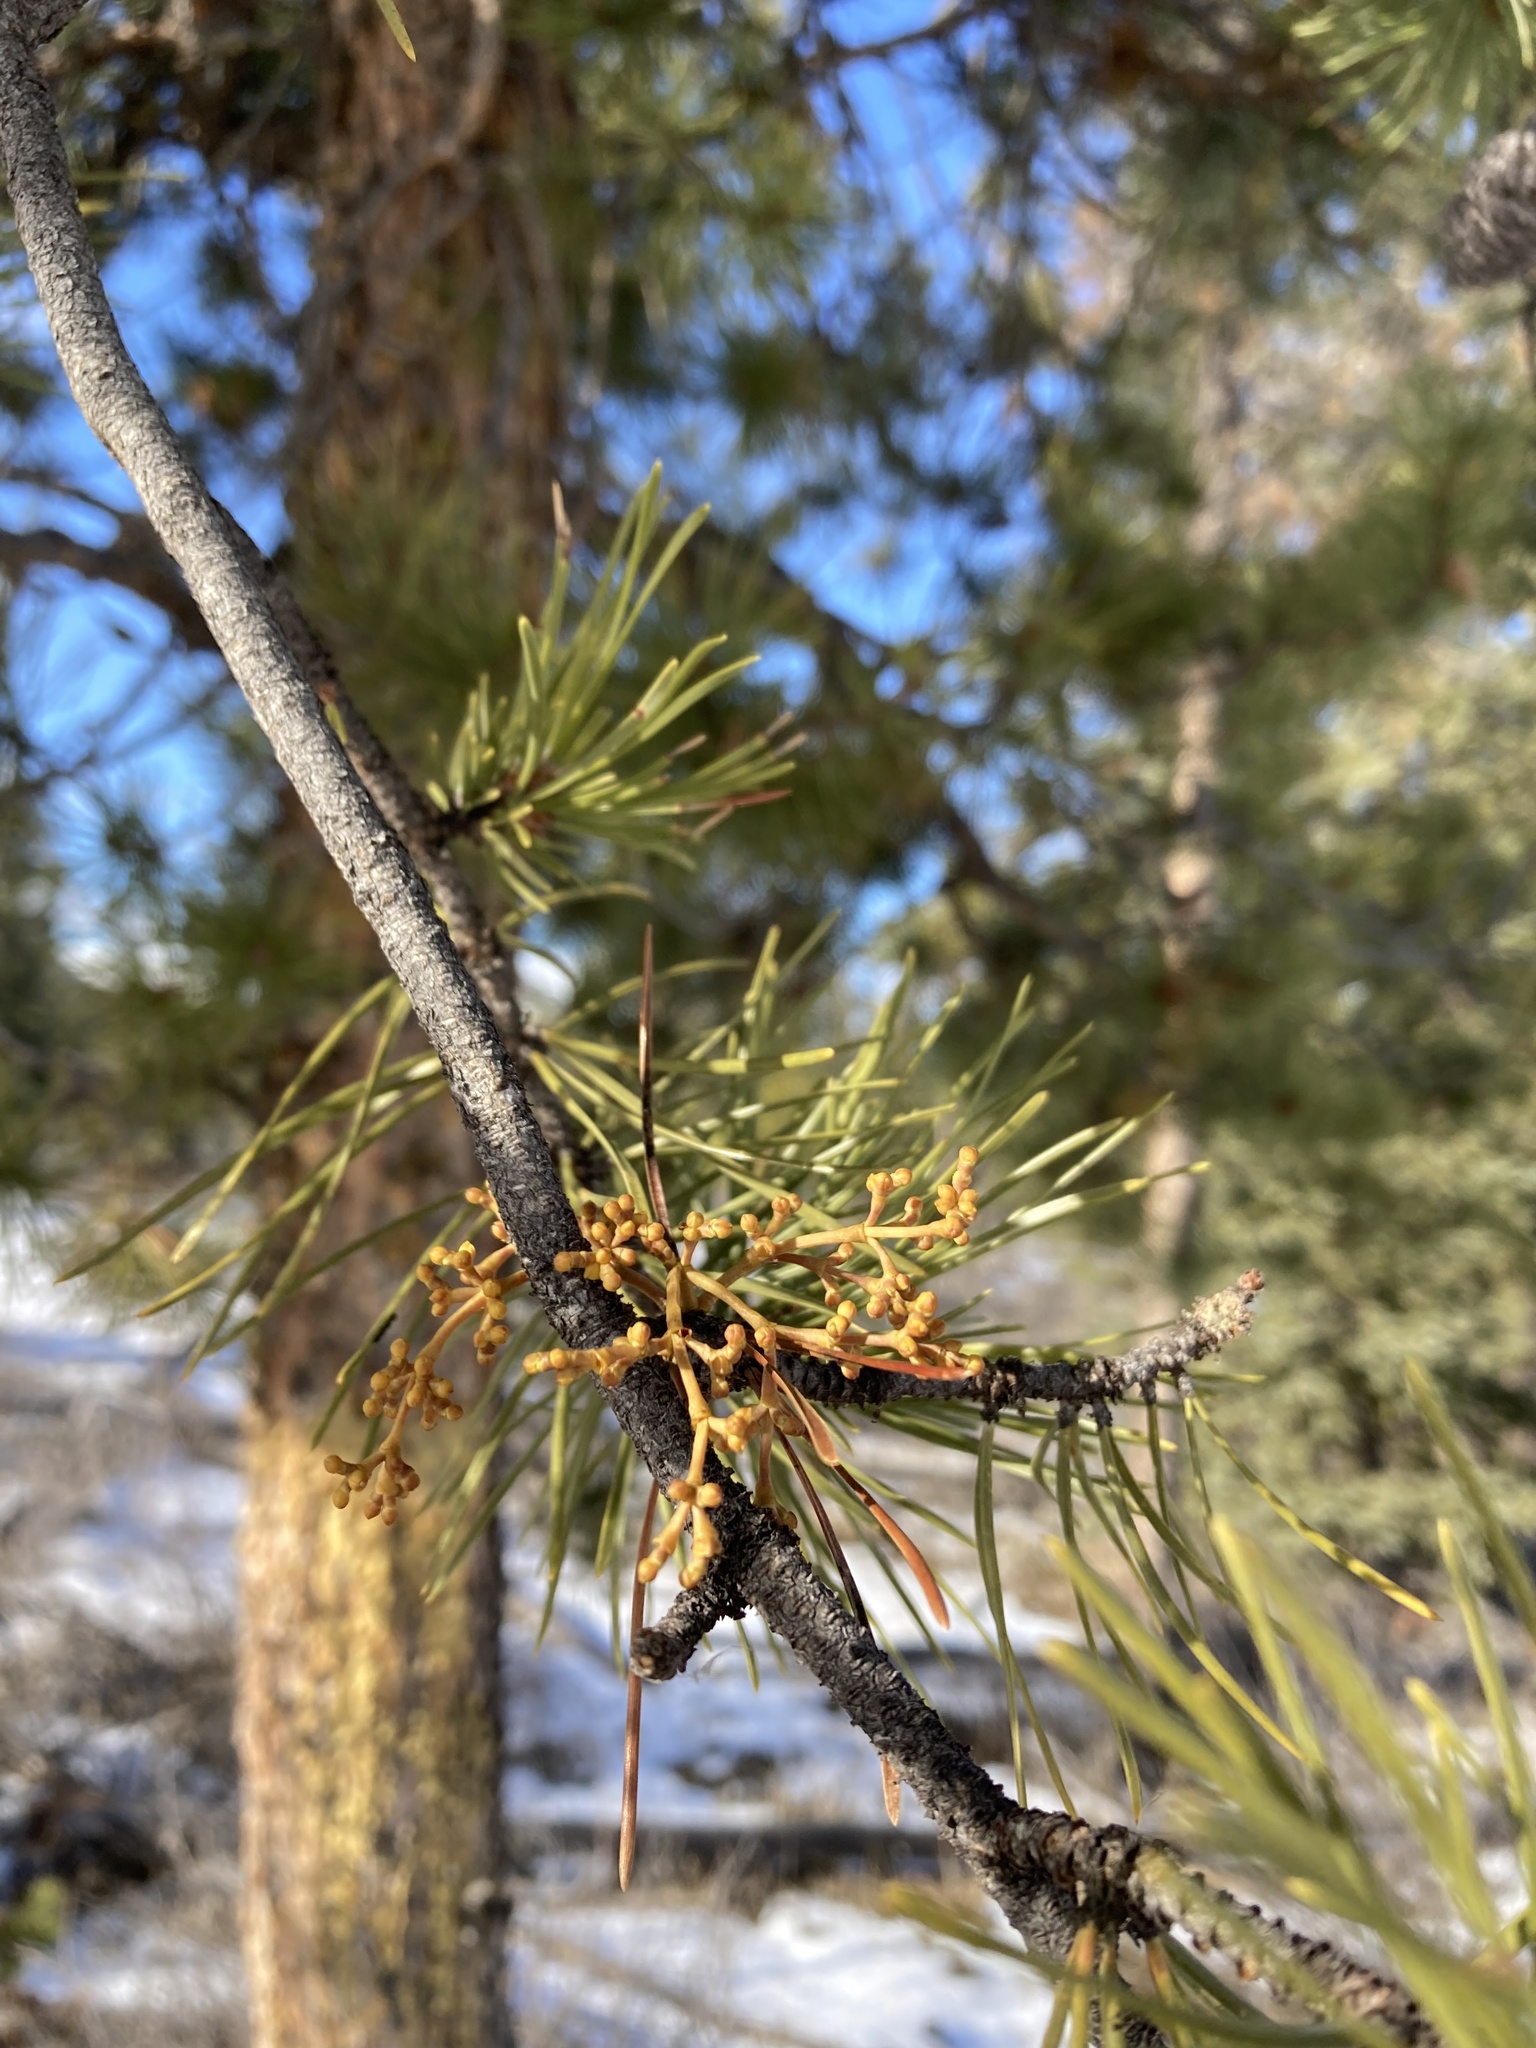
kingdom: Plantae
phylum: Tracheophyta
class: Magnoliopsida
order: Santalales
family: Viscaceae
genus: Arceuthobium
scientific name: Arceuthobium americanum
